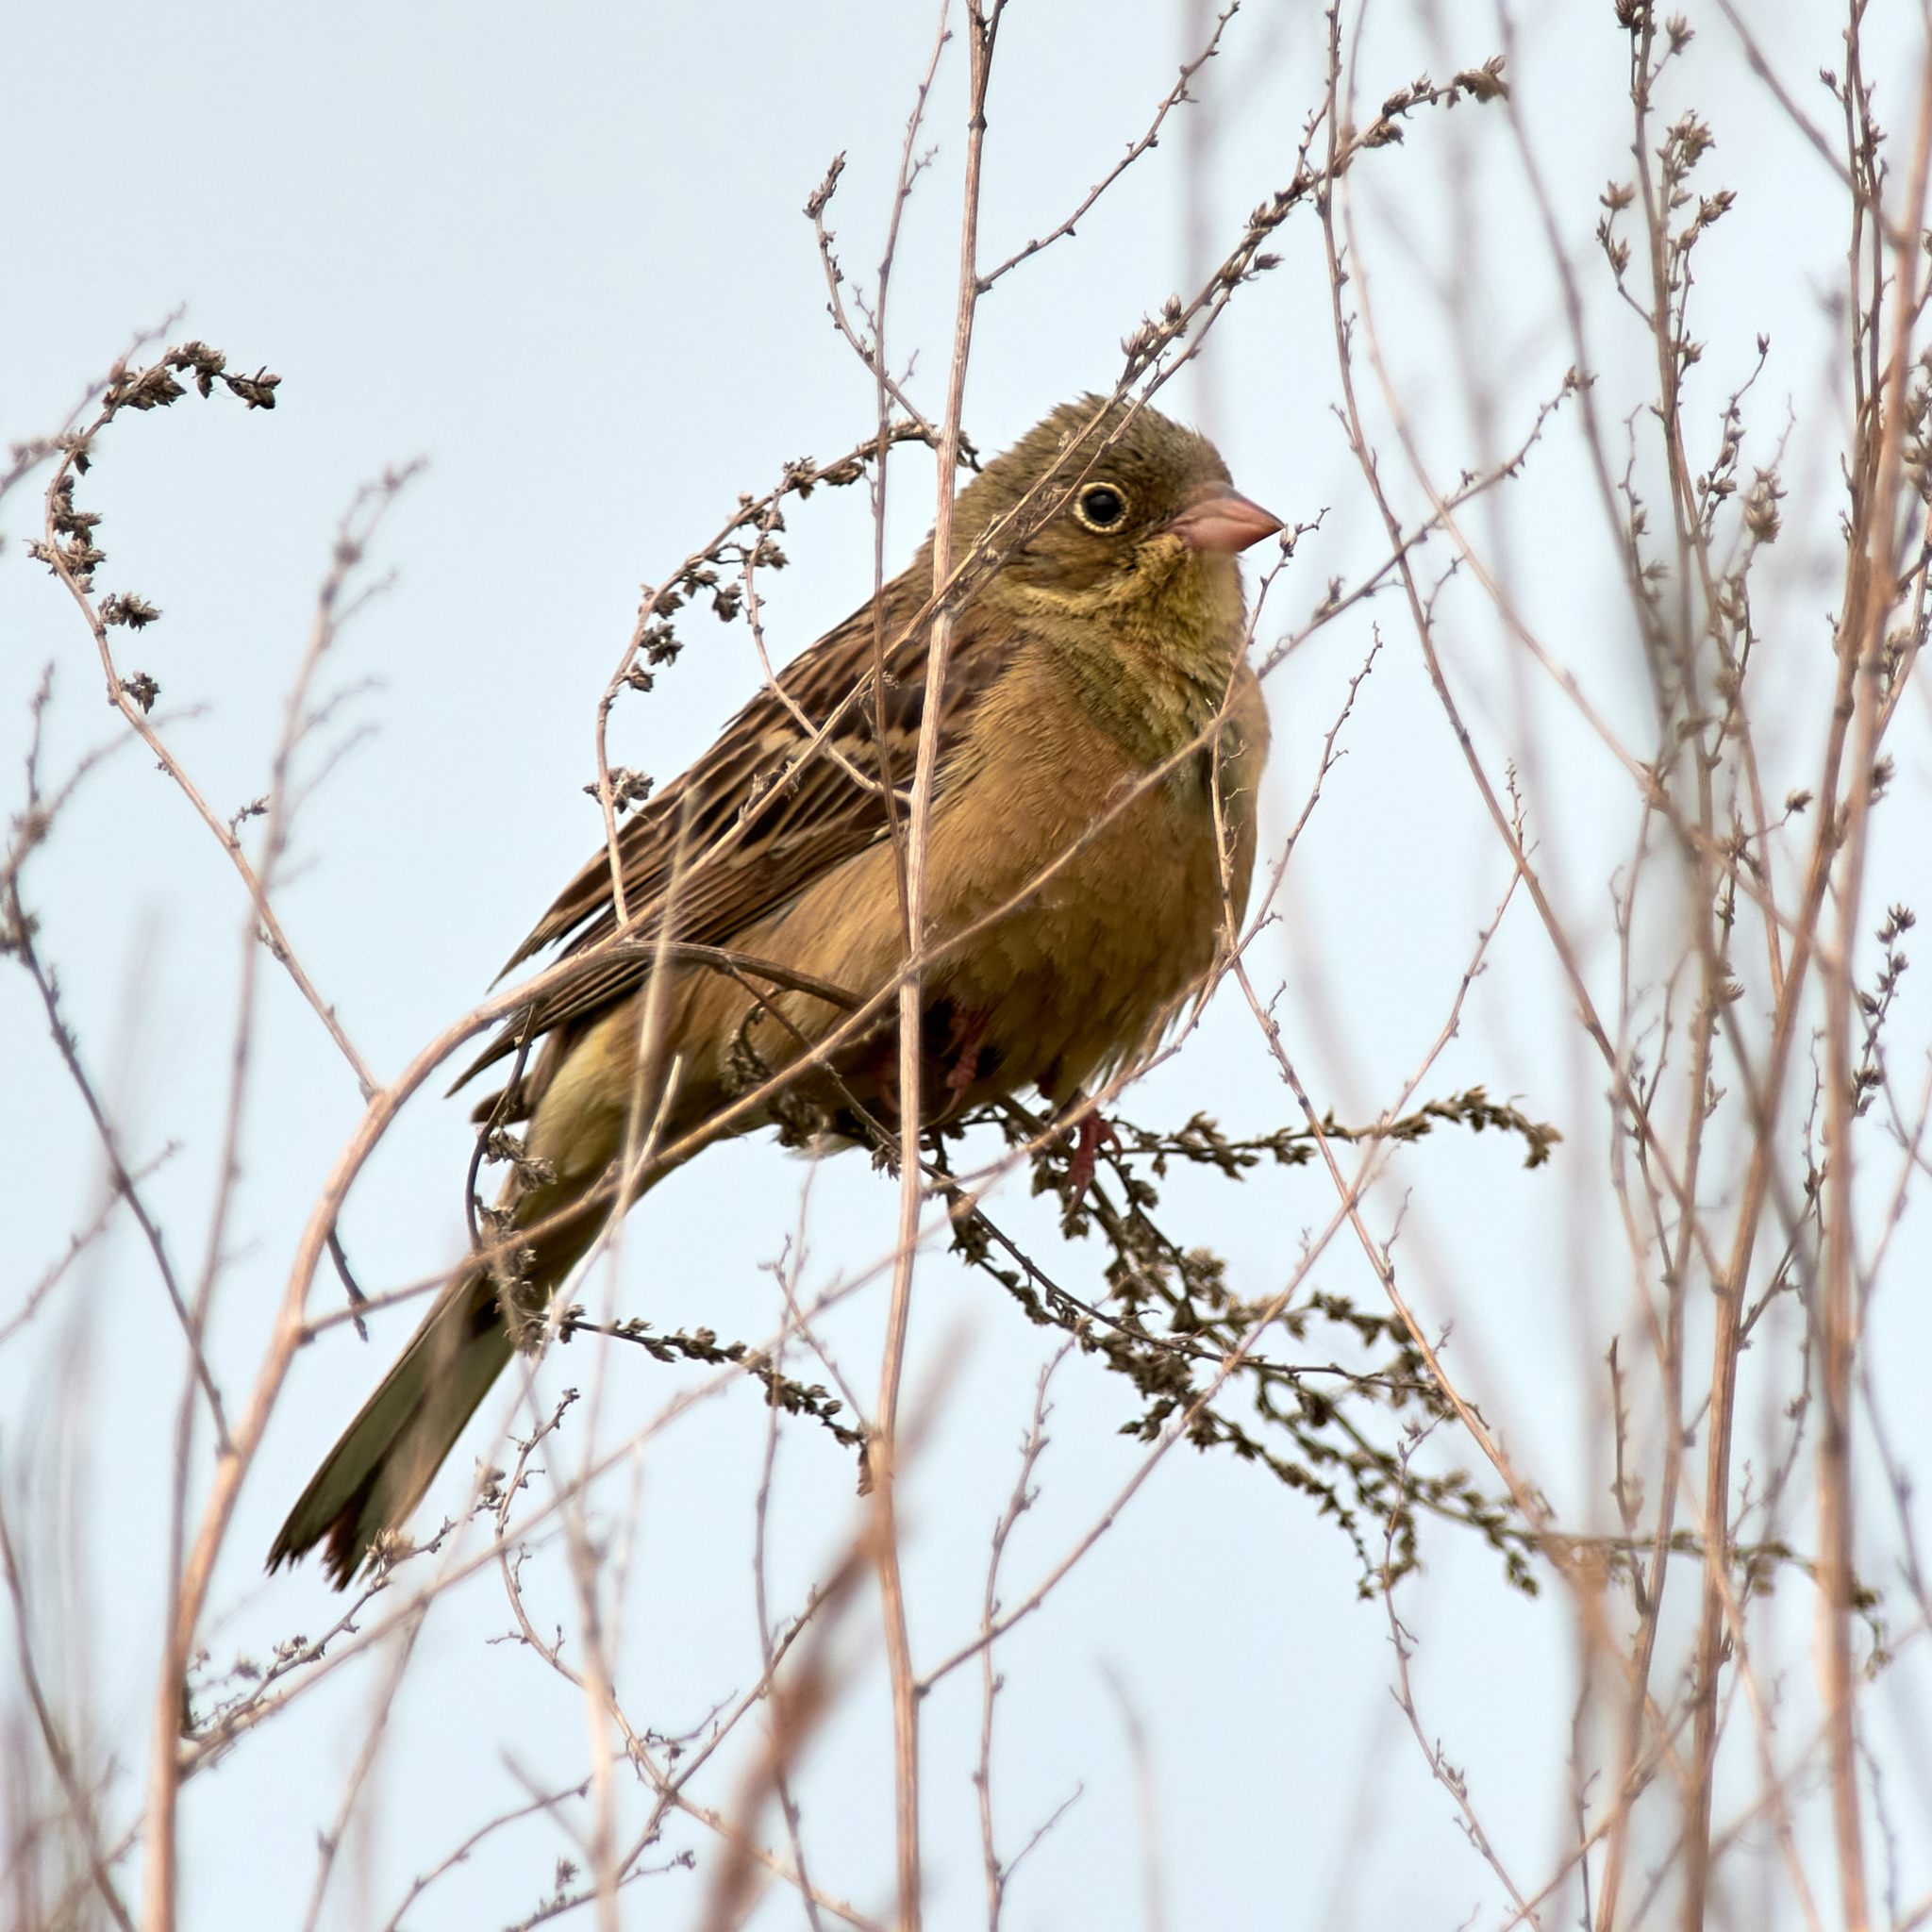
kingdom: Animalia
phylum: Chordata
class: Aves
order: Passeriformes
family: Emberizidae
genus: Emberiza
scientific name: Emberiza hortulana
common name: Ortolan bunting
